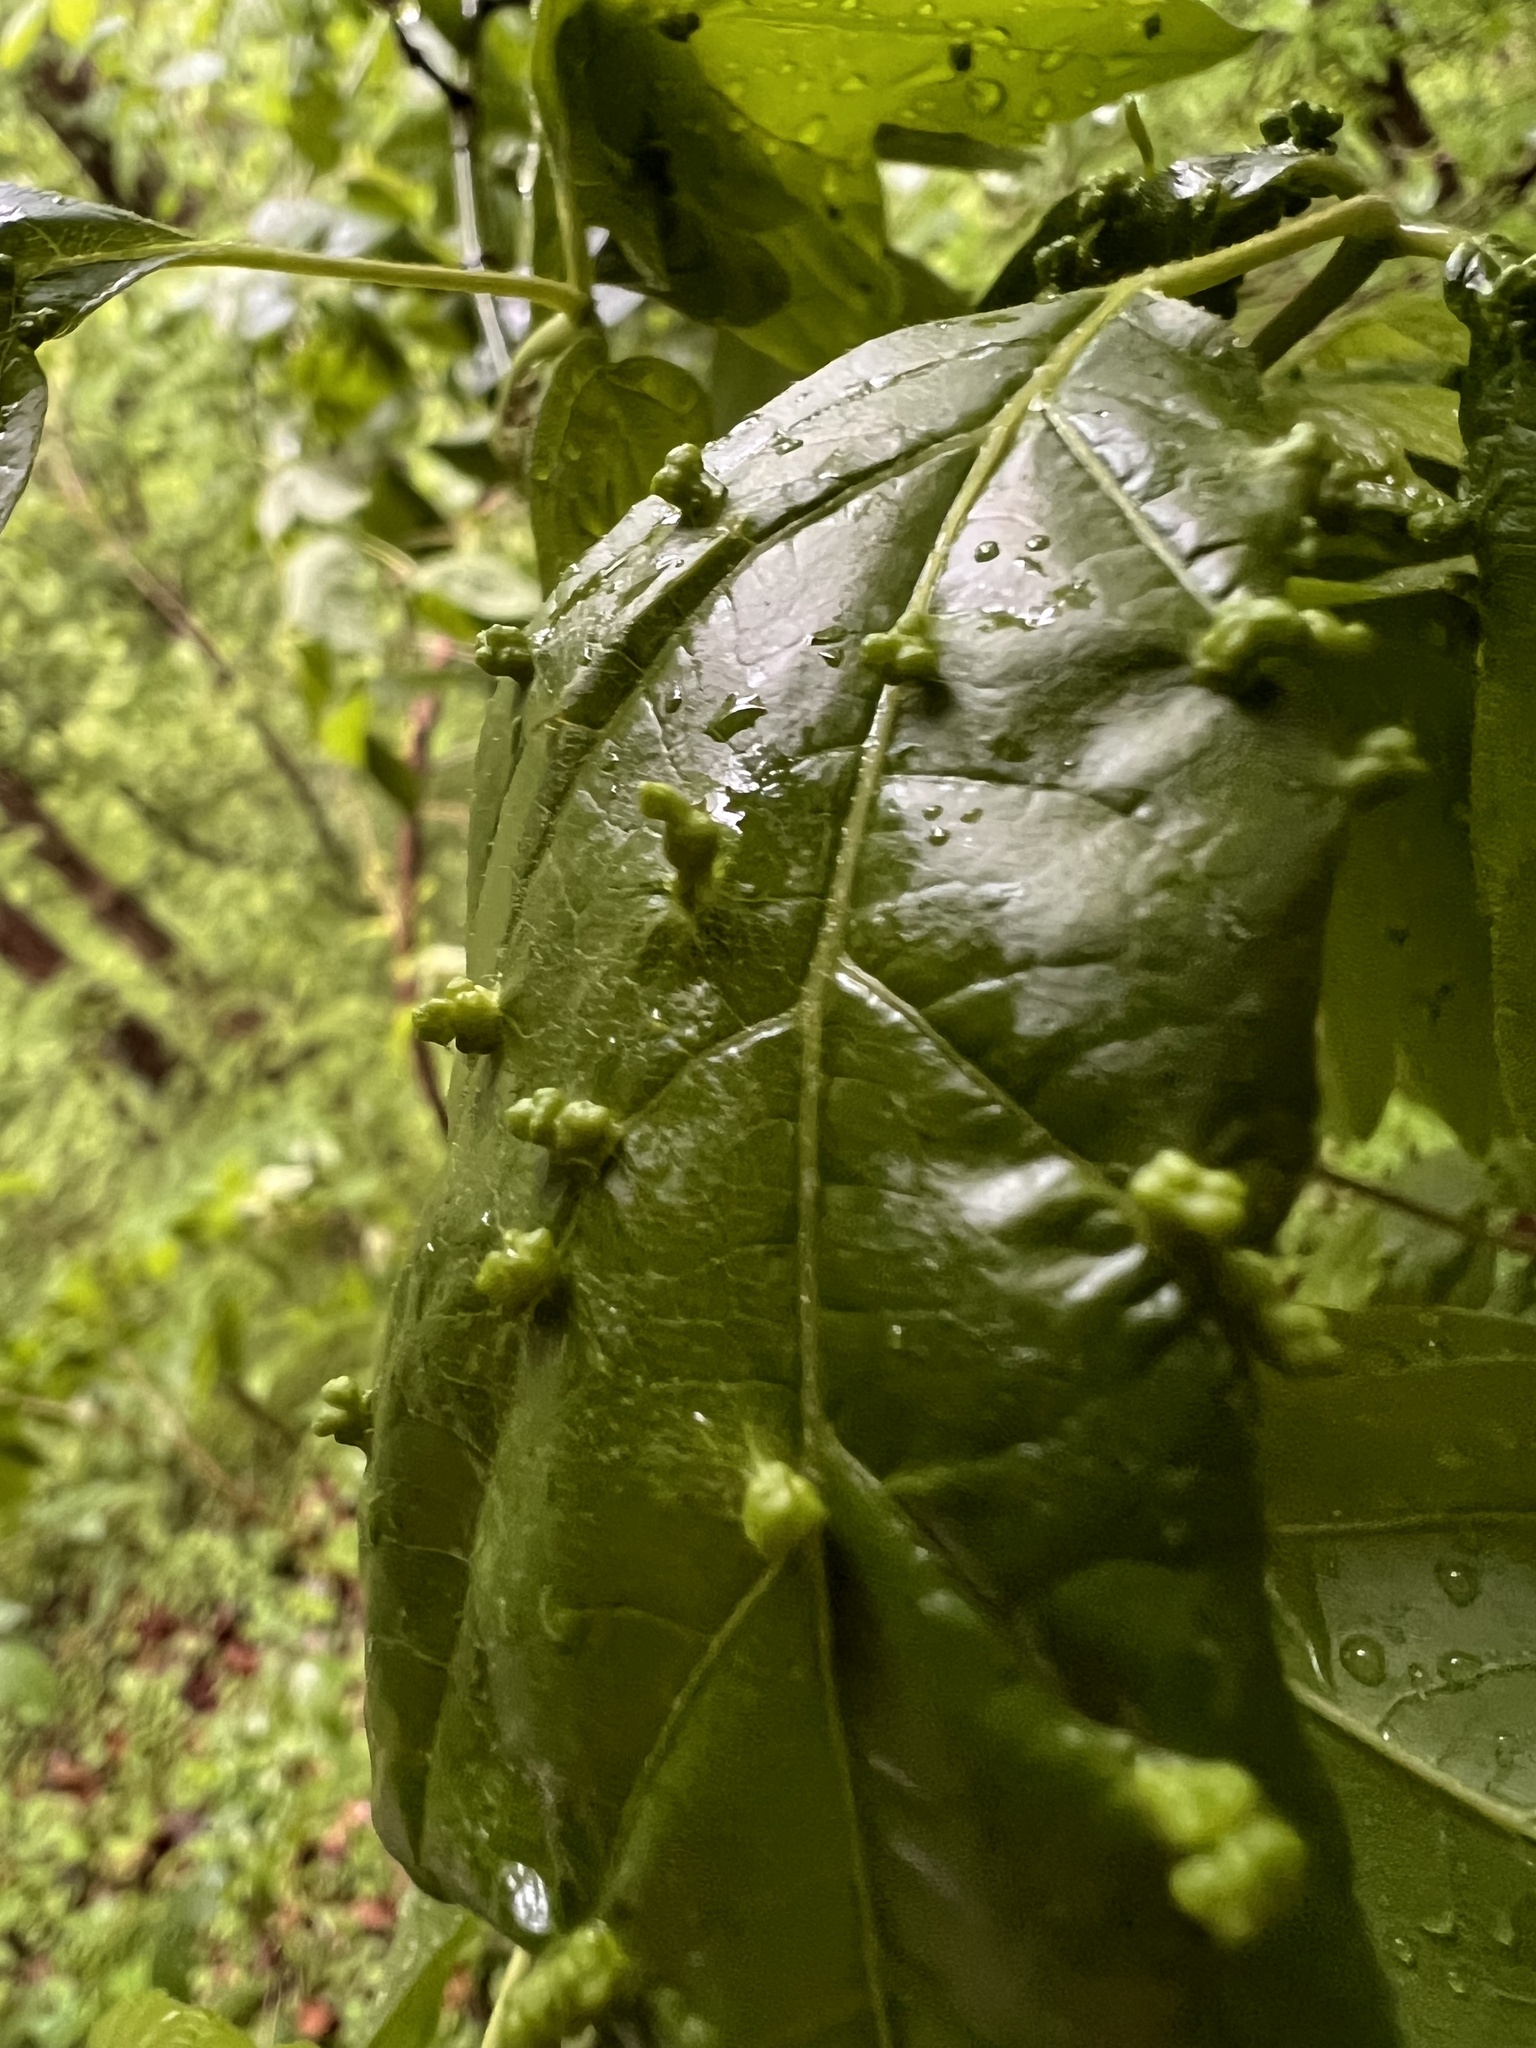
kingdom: Animalia
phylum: Arthropoda
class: Arachnida
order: Trombidiformes
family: Eriophyidae
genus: Aceria
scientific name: Aceria
